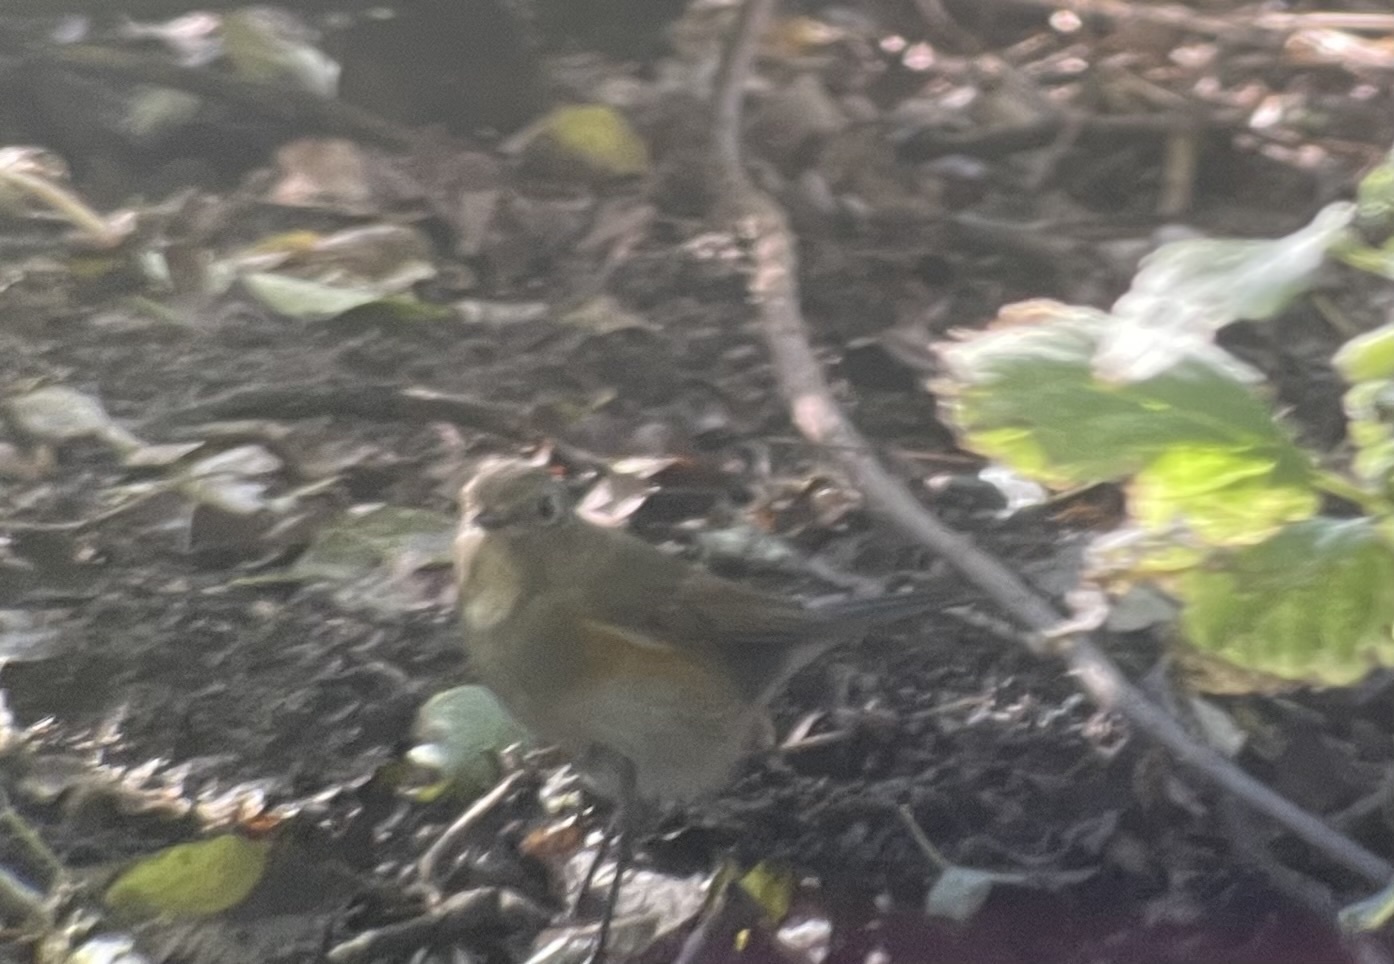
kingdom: Animalia
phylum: Chordata
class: Aves
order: Passeriformes
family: Muscicapidae
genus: Tarsiger
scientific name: Tarsiger cyanurus
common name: Red-flanked bluetail
